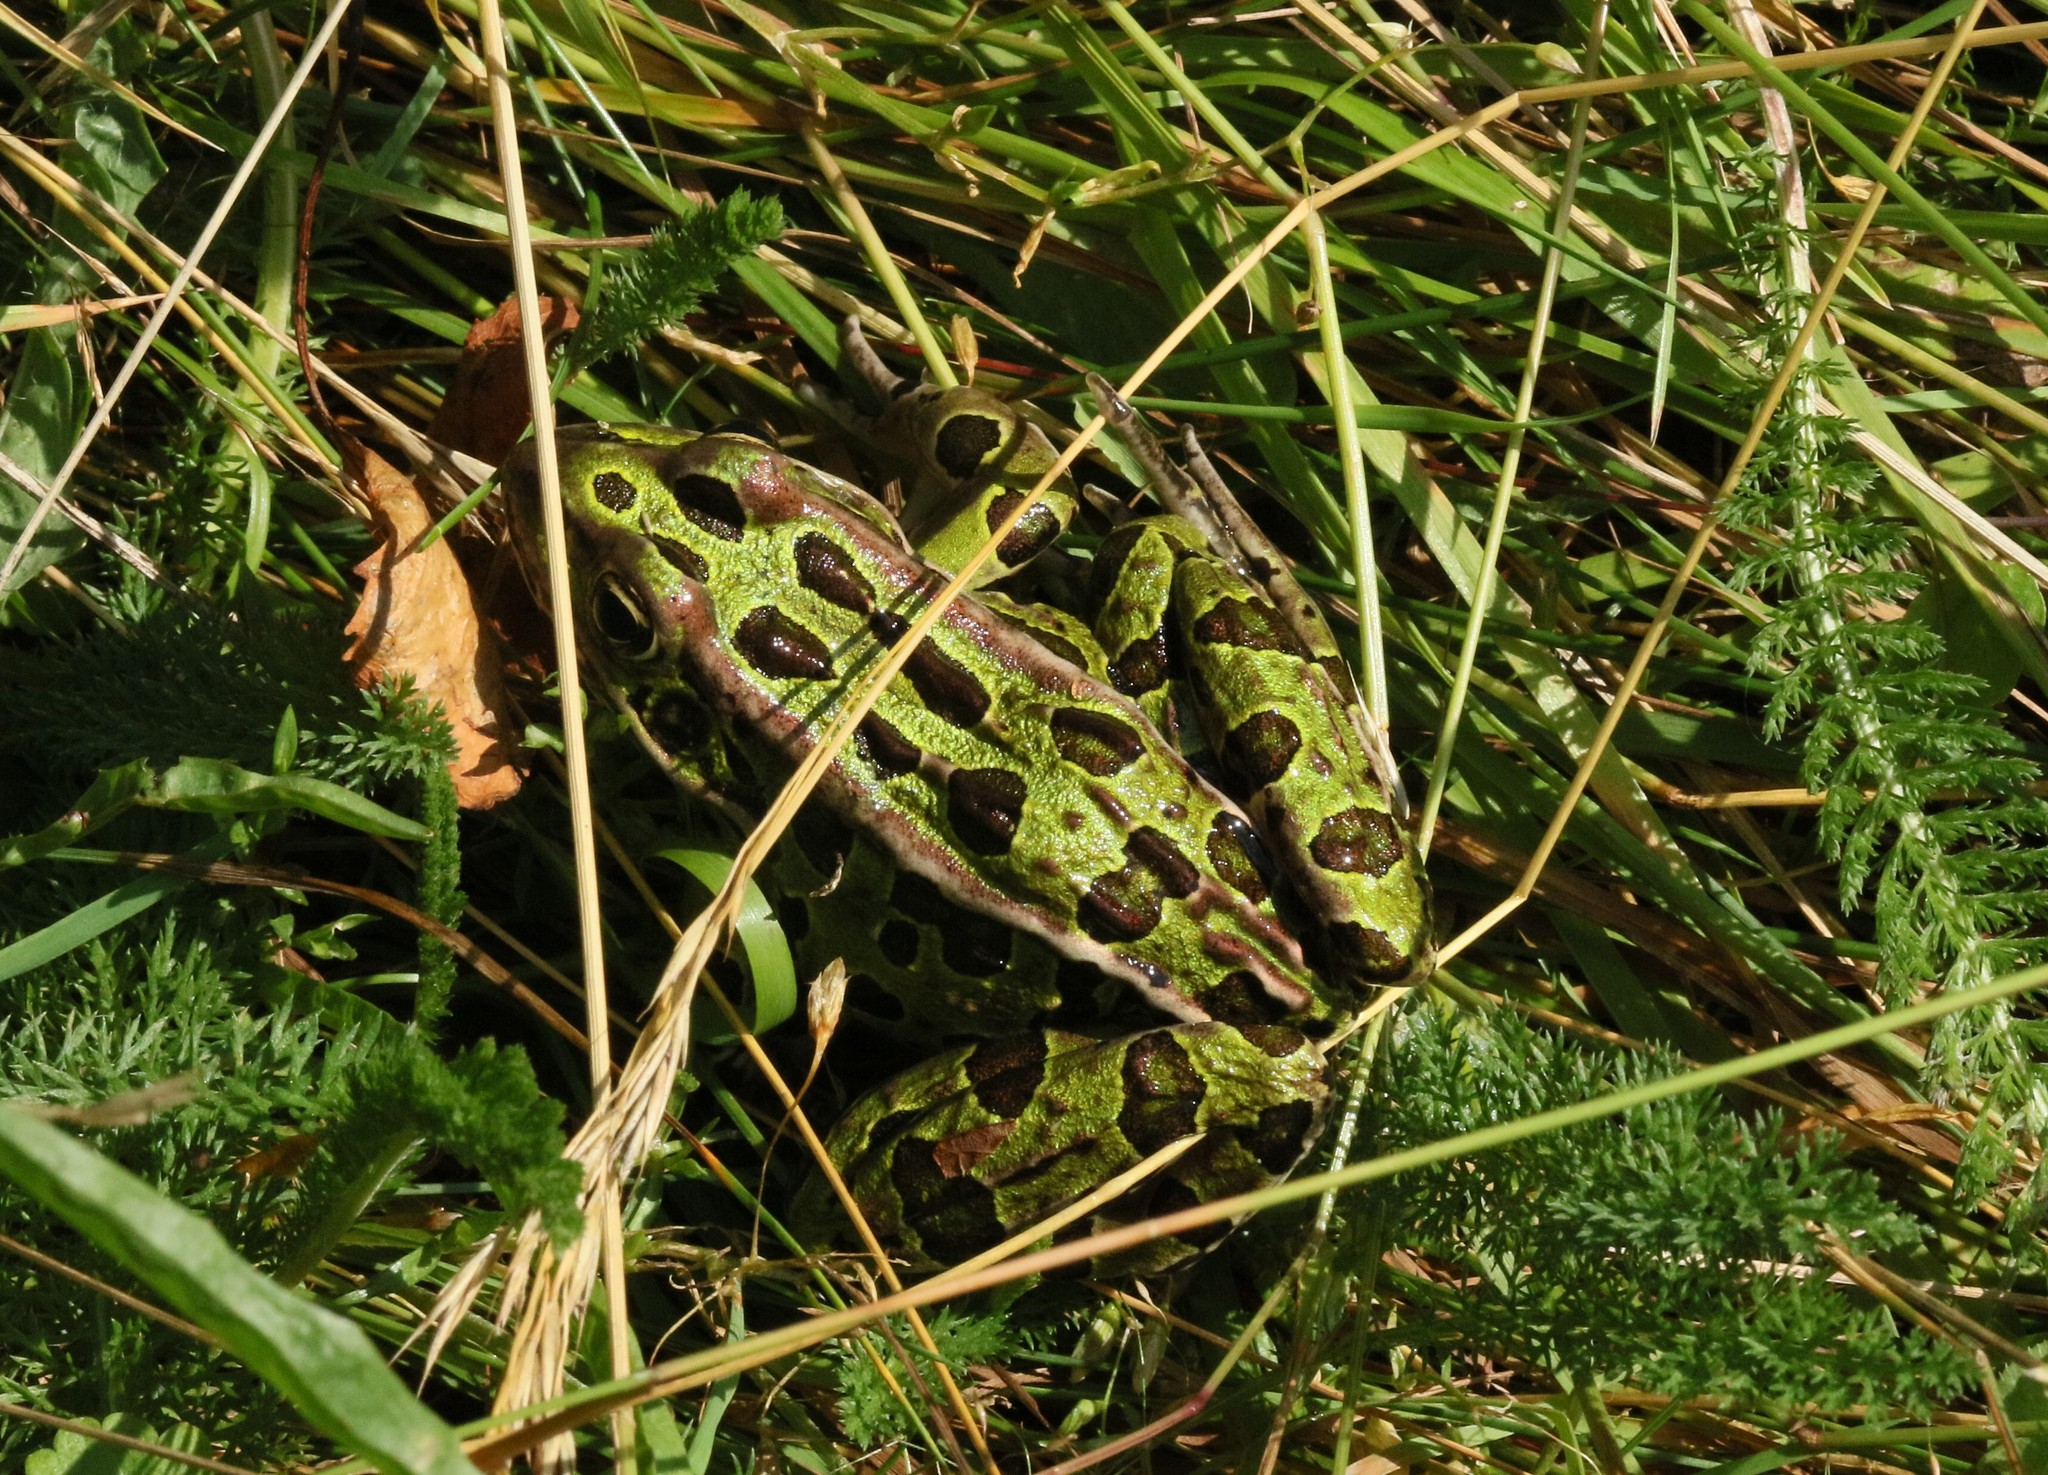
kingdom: Animalia
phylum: Chordata
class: Amphibia
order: Anura
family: Ranidae
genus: Lithobates
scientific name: Lithobates pipiens
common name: Northern leopard frog
